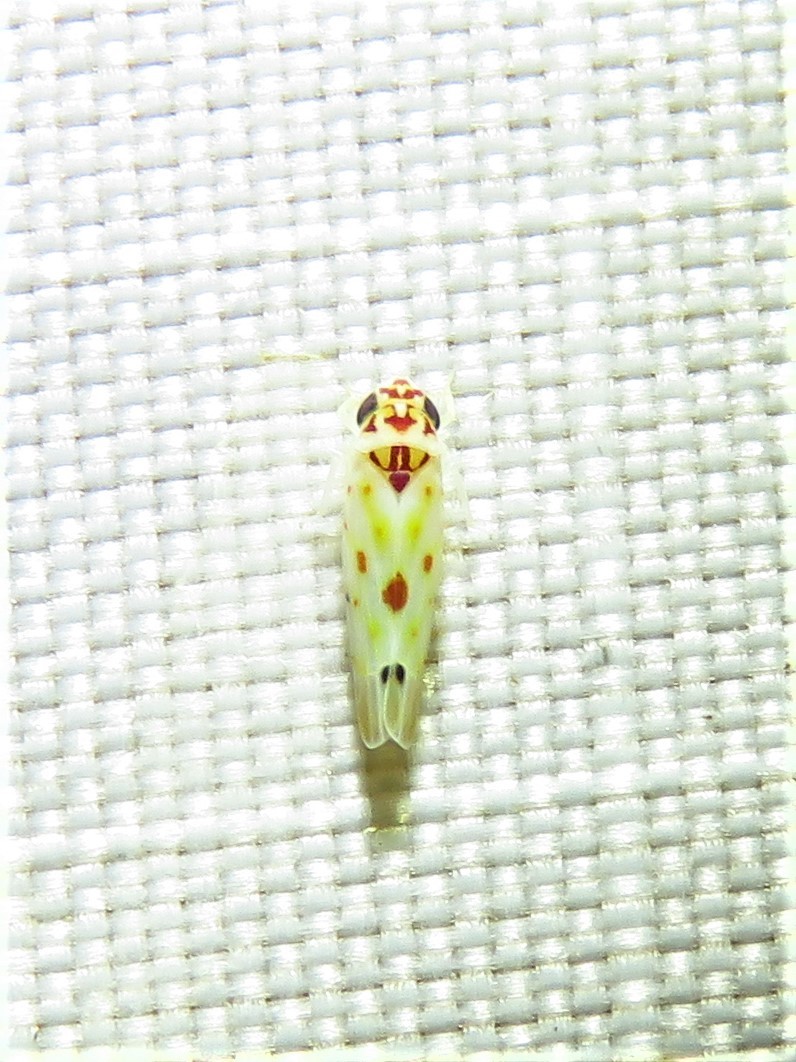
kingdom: Animalia
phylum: Arthropoda
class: Insecta
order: Hemiptera
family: Cicadellidae
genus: Eratoneura
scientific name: Eratoneura hymac
